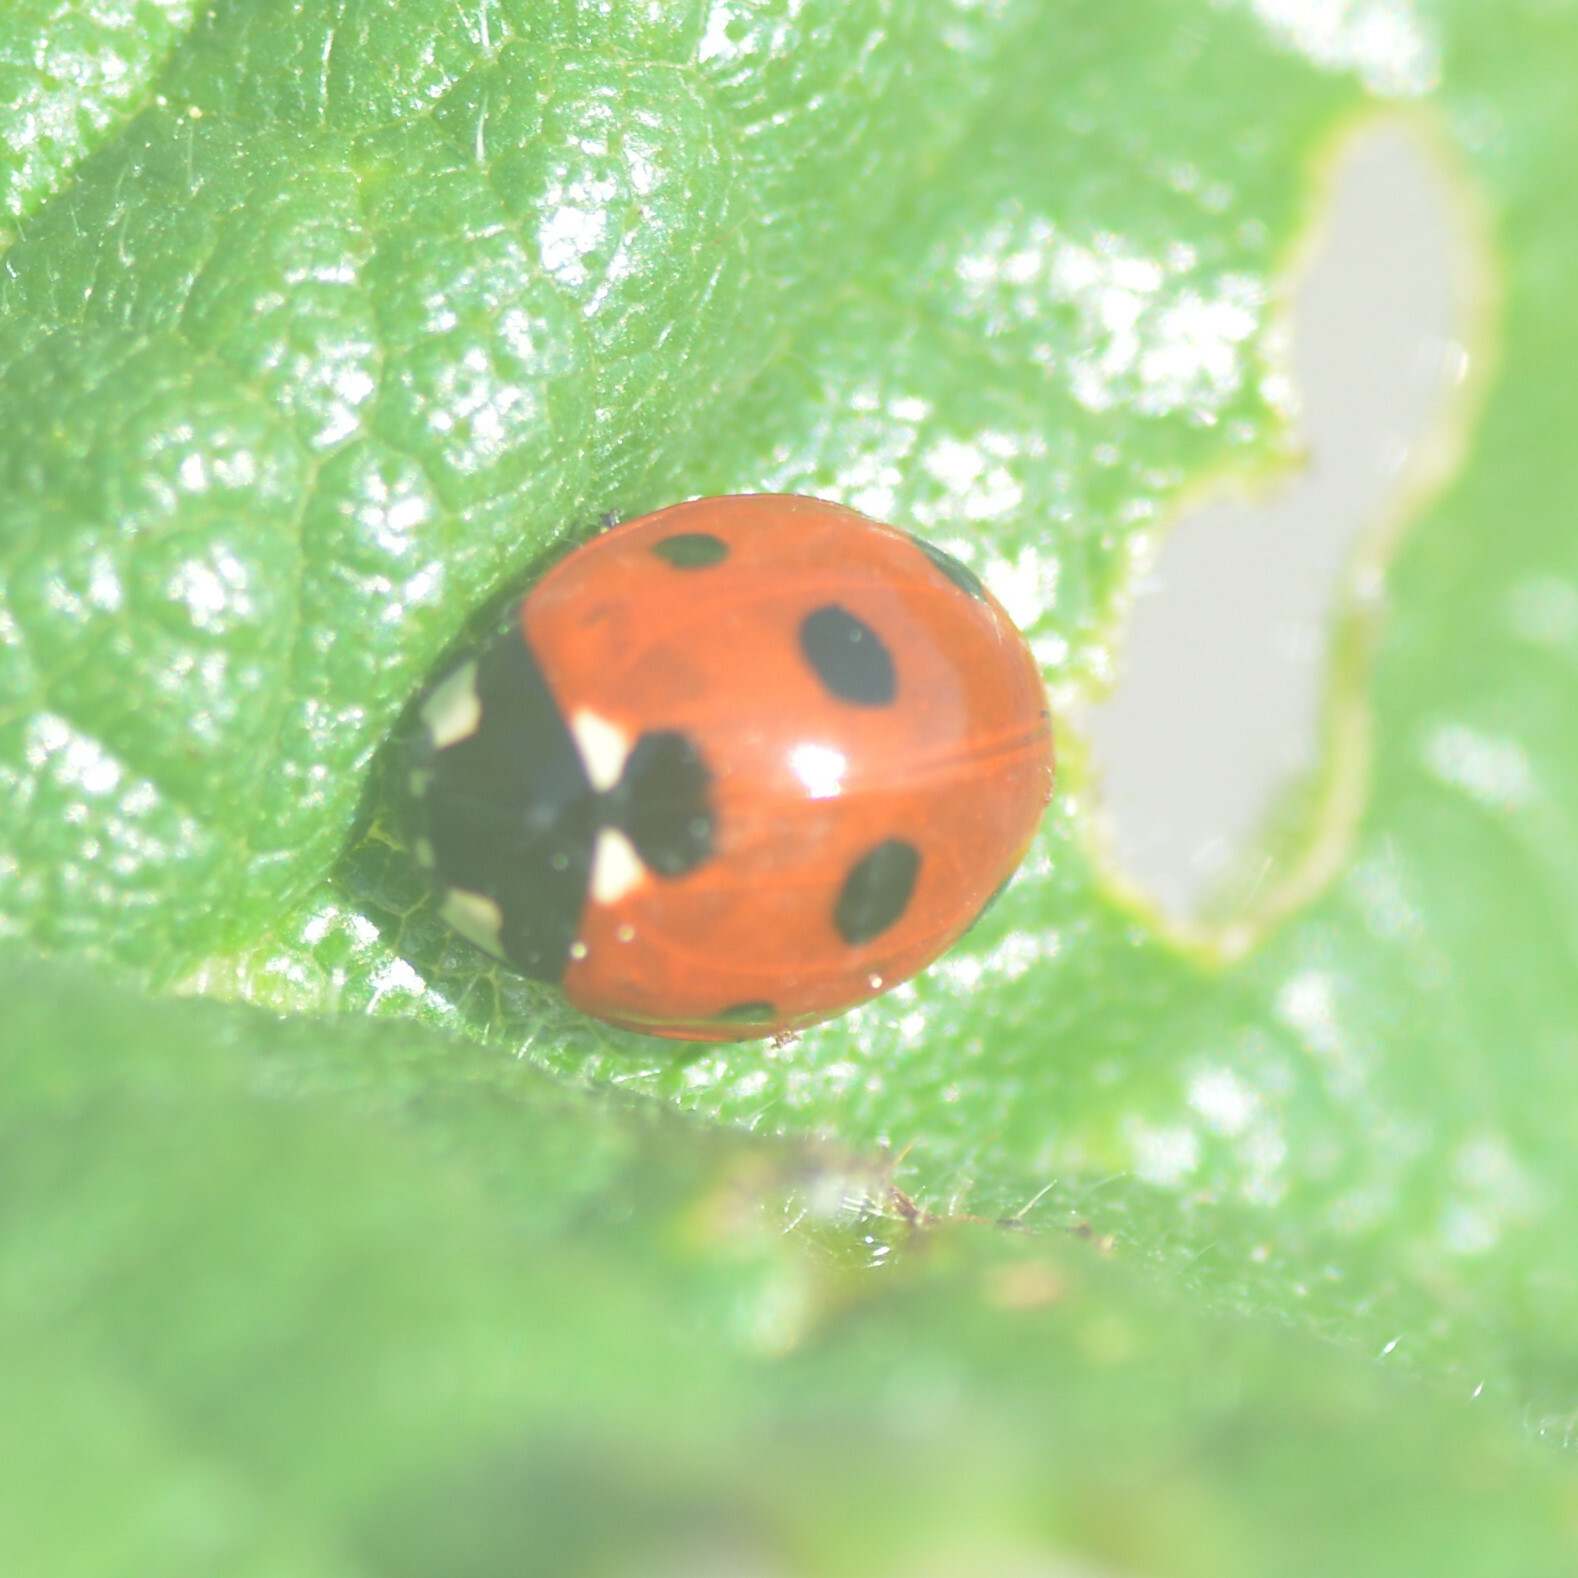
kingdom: Animalia
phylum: Arthropoda
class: Insecta
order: Coleoptera
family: Coccinellidae
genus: Coccinella
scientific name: Coccinella septempunctata
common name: Sevenspotted lady beetle
